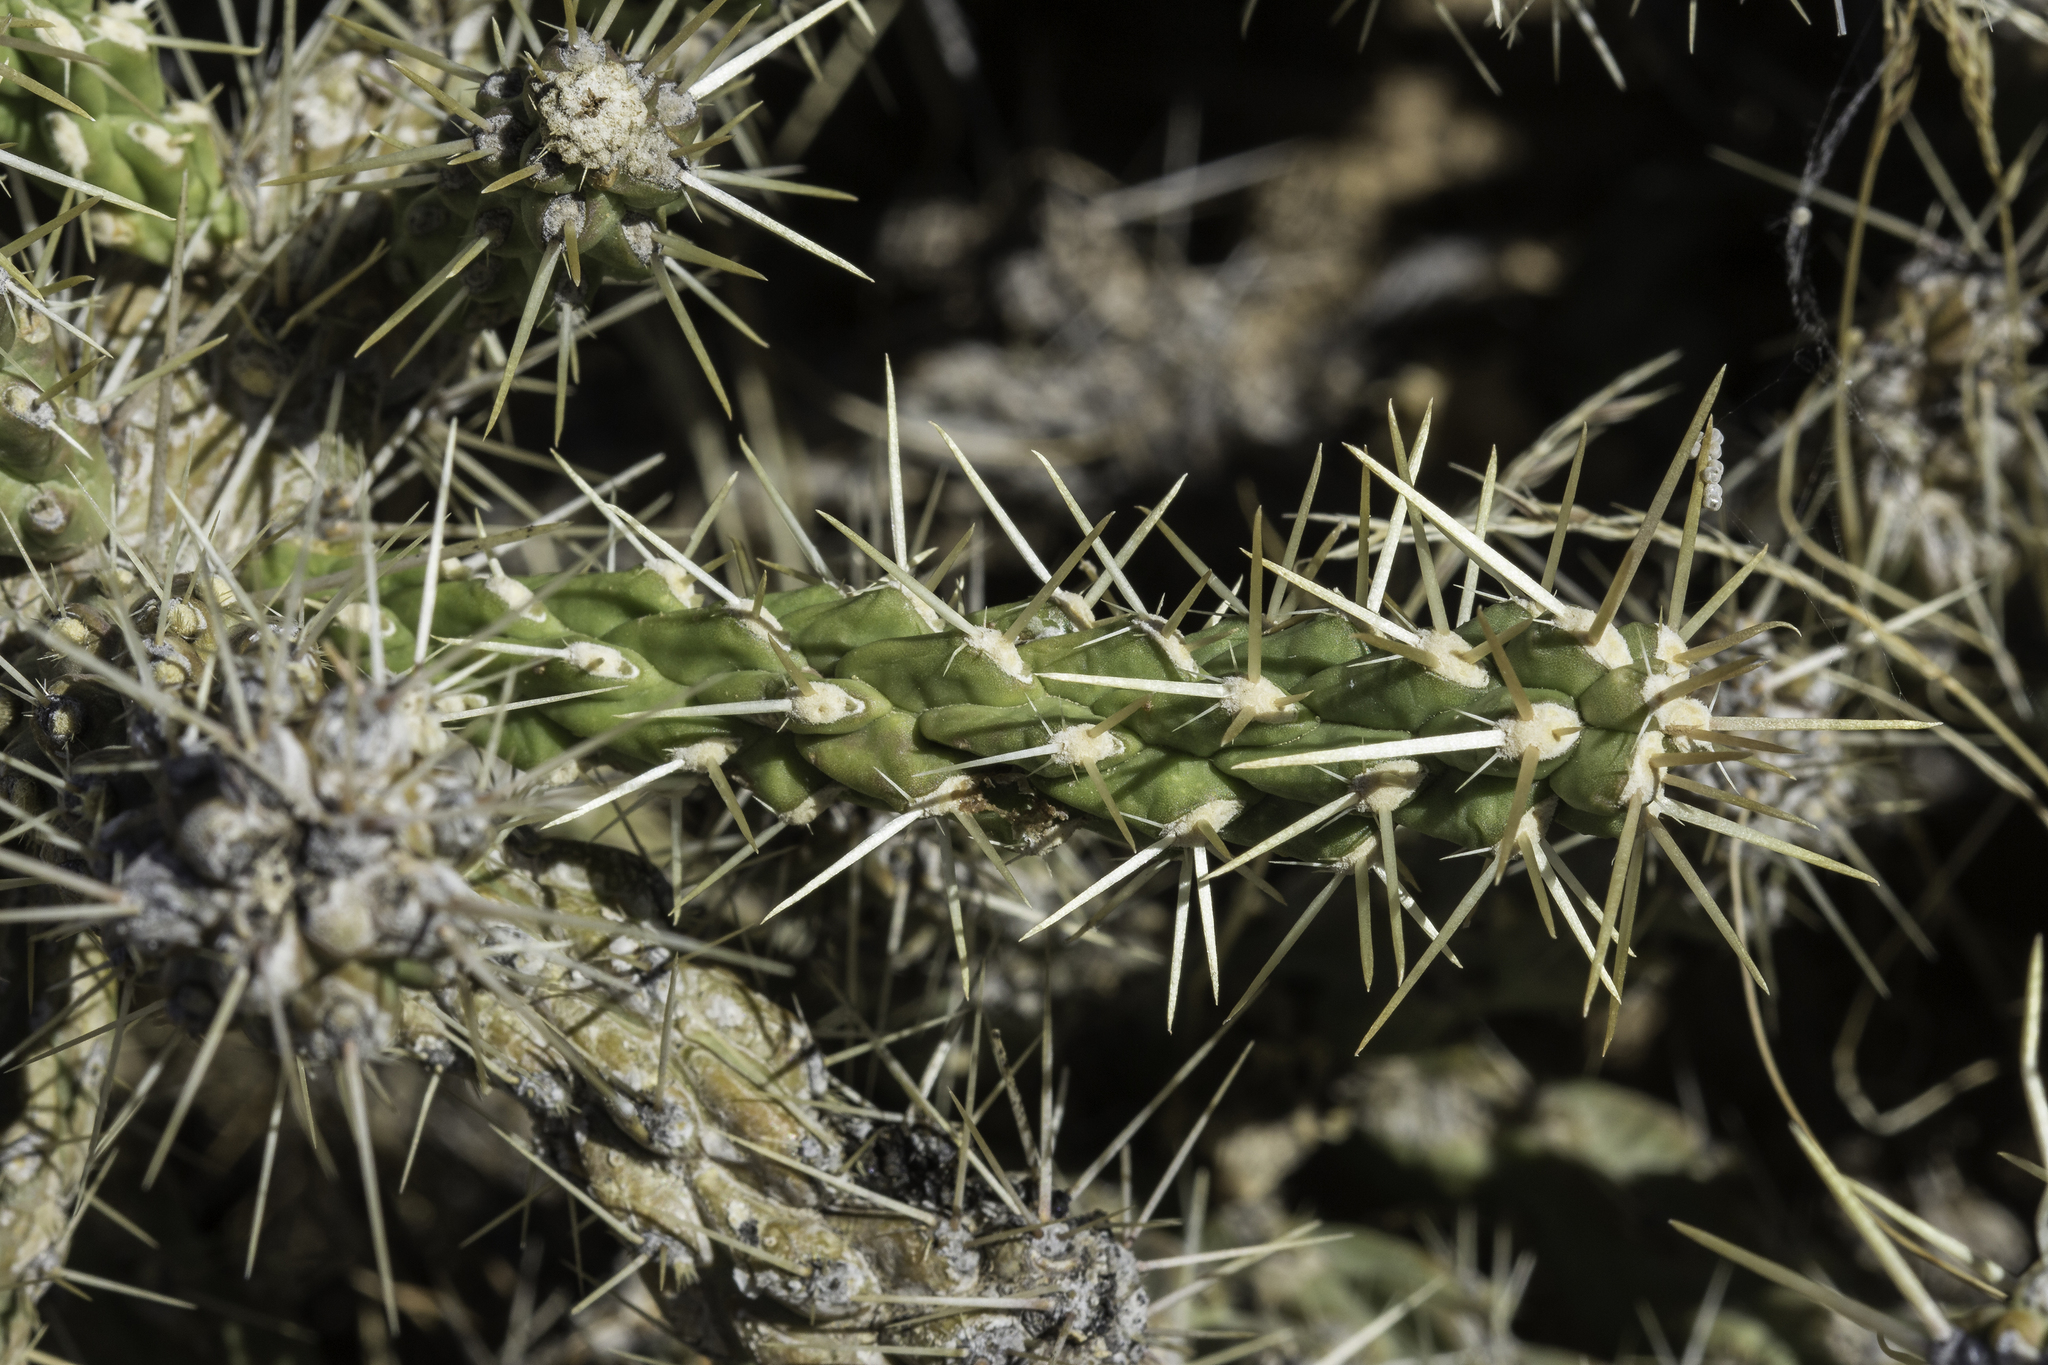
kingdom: Plantae
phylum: Tracheophyta
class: Magnoliopsida
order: Caryophyllales
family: Cactaceae
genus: Cylindropuntia
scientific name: Cylindropuntia whipplei
